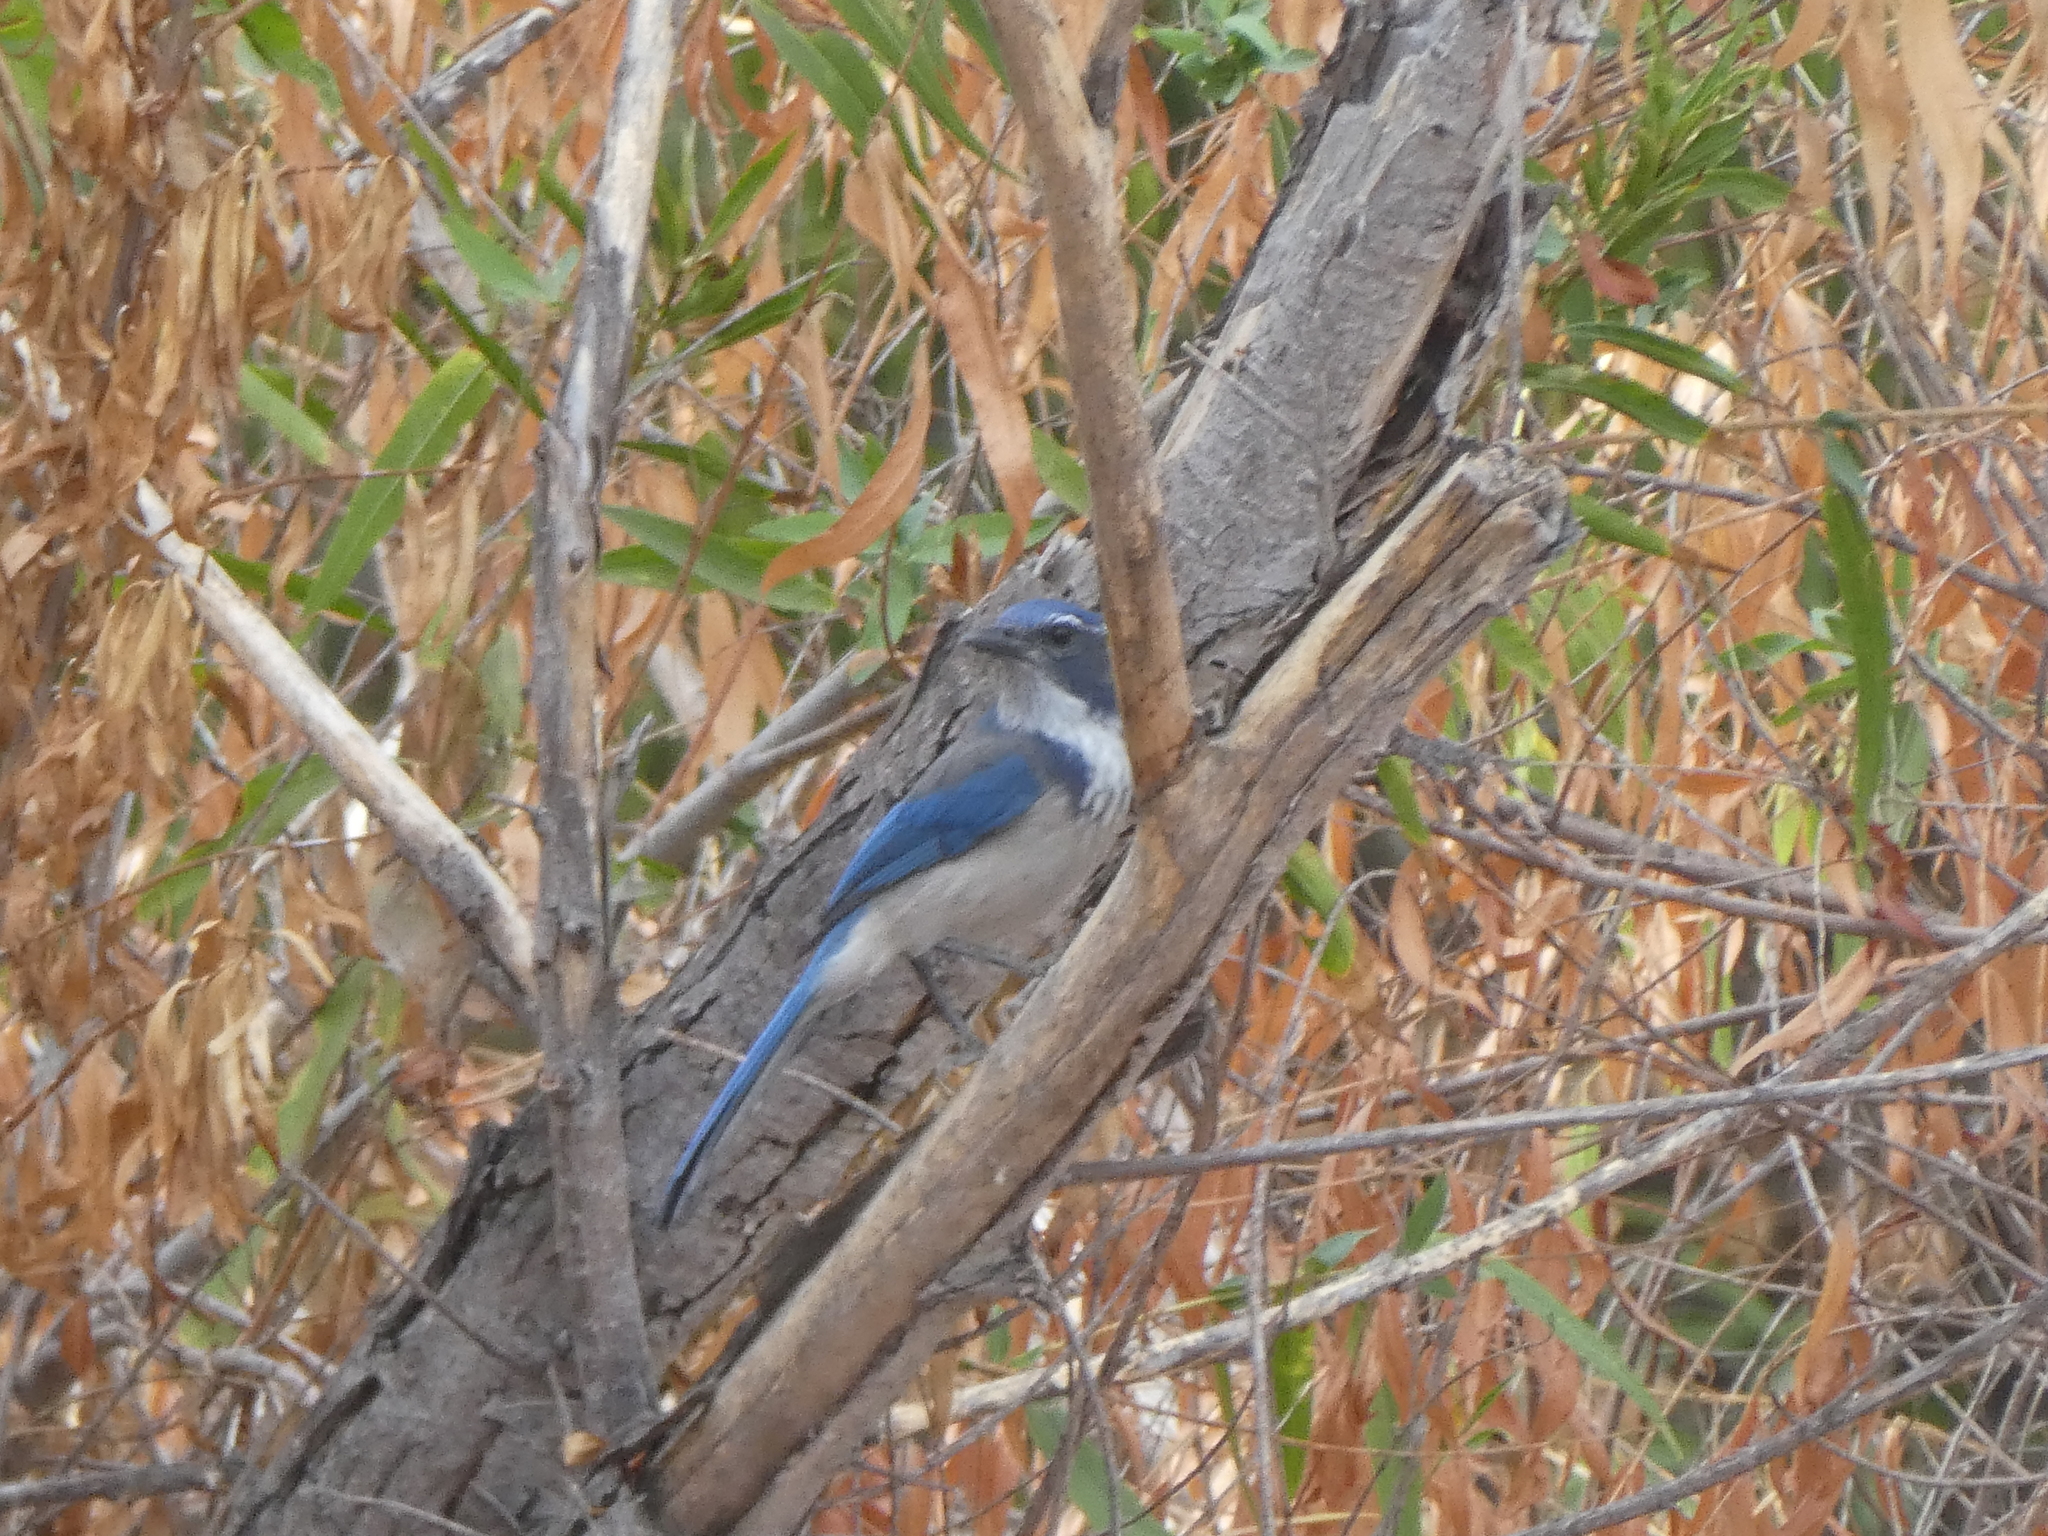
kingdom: Animalia
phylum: Chordata
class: Aves
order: Passeriformes
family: Corvidae
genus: Aphelocoma
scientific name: Aphelocoma californica
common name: California scrub-jay
